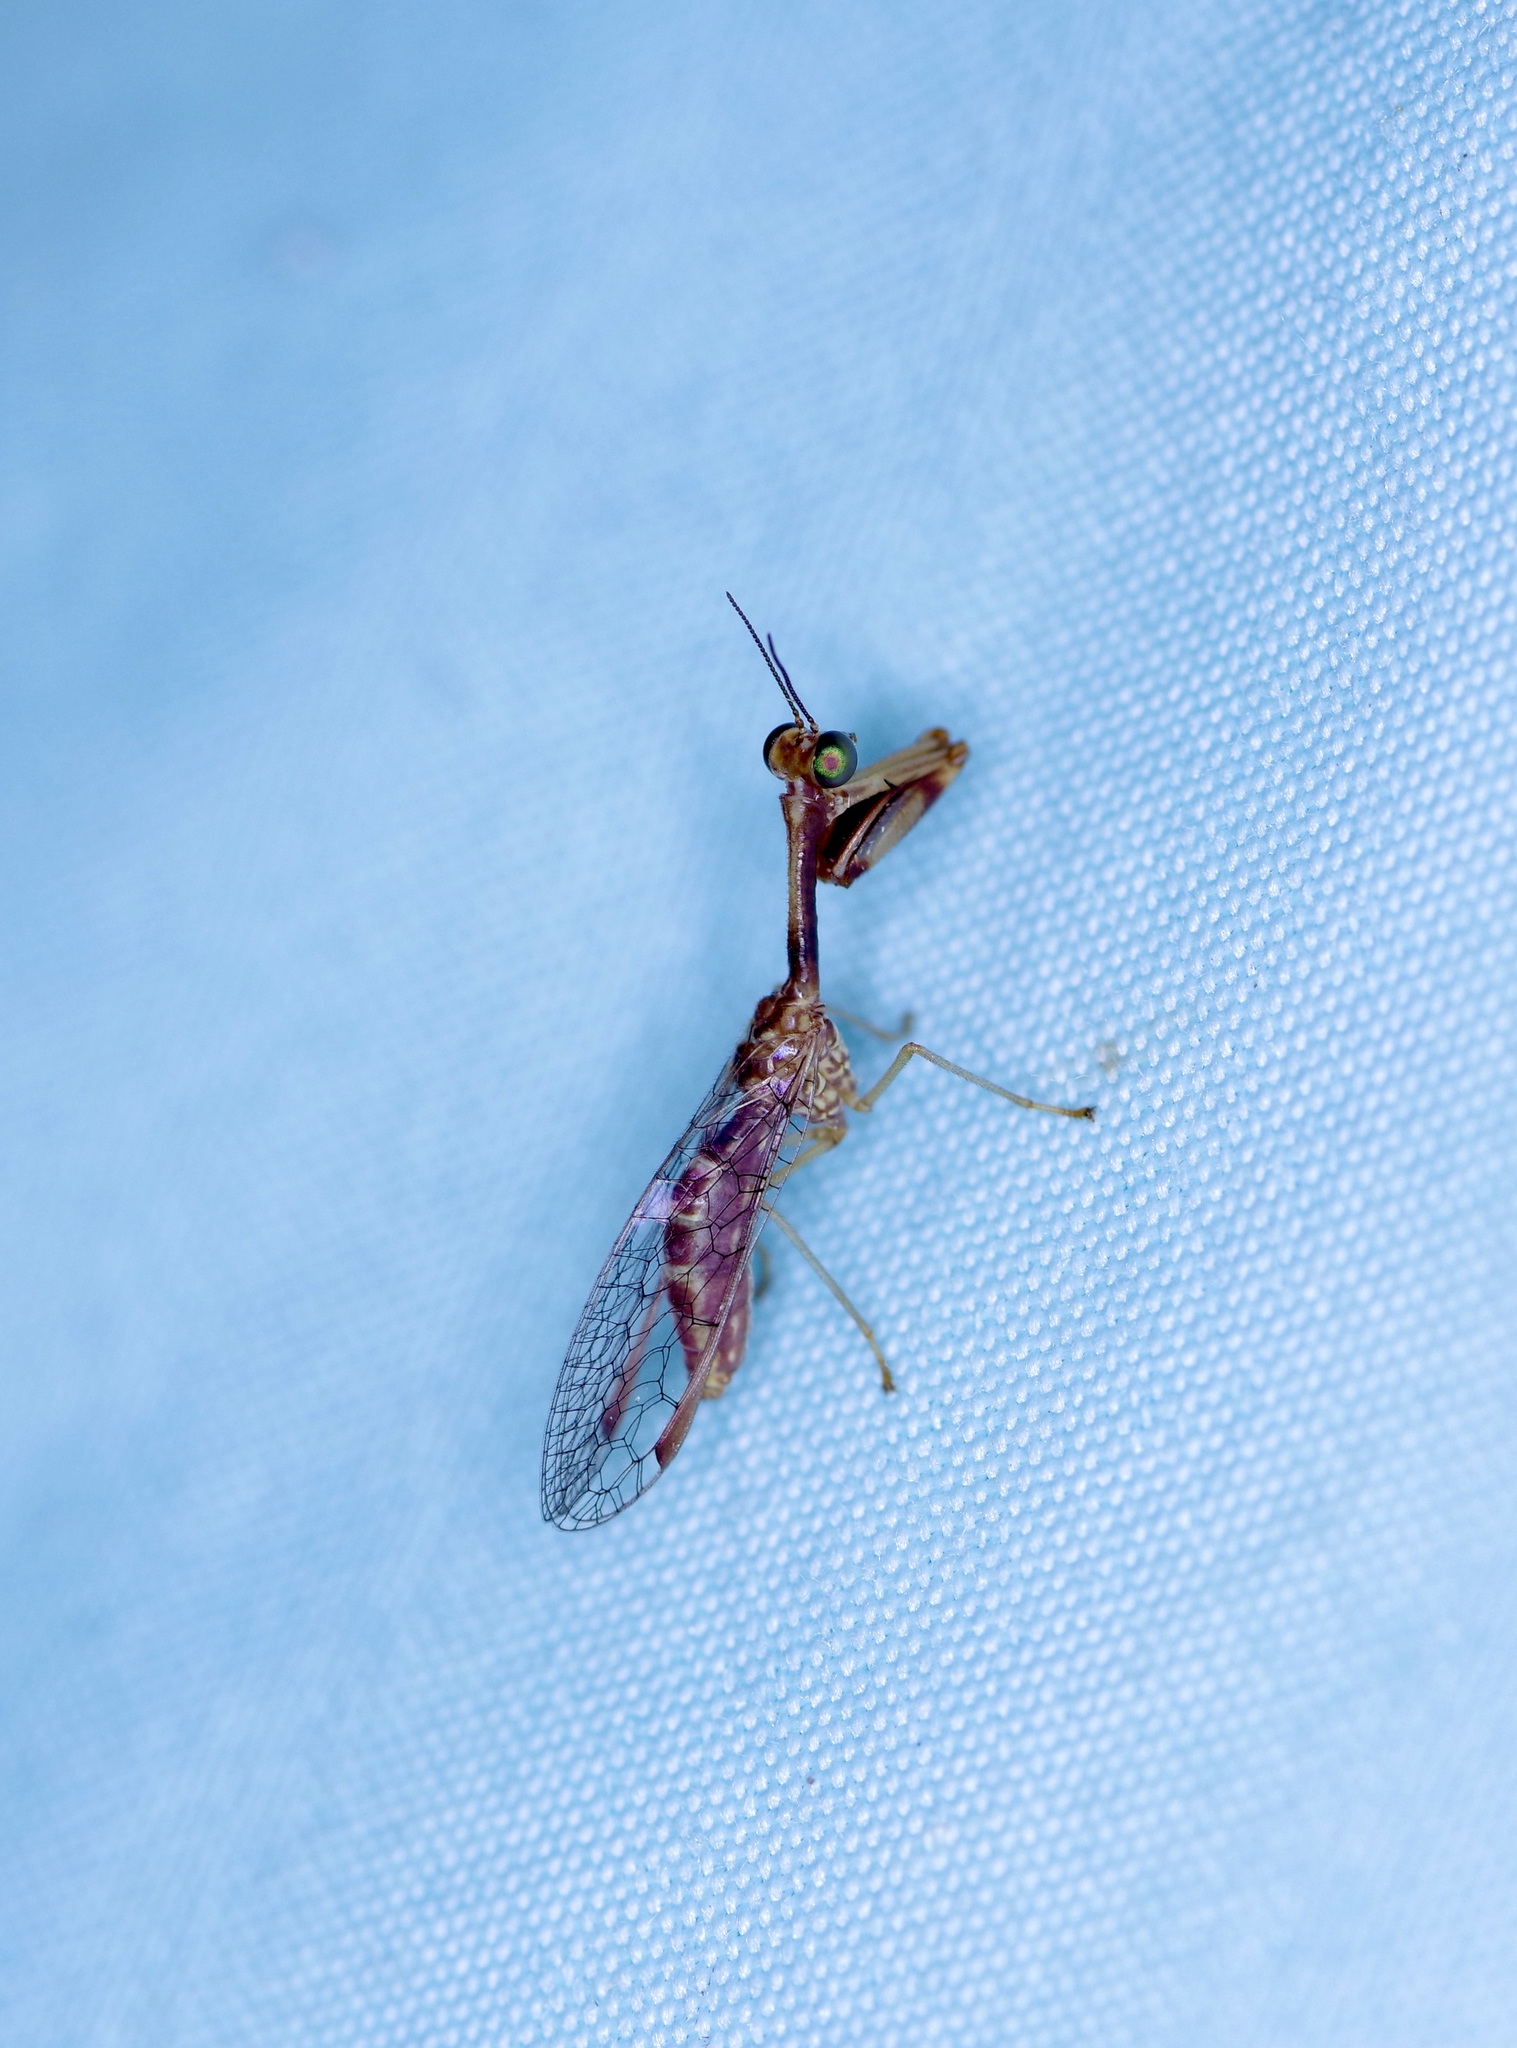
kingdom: Animalia
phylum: Arthropoda
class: Insecta
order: Neuroptera
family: Mantispidae
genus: Leptomantispa
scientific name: Leptomantispa pulchella
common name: Stevens's mantidfly
